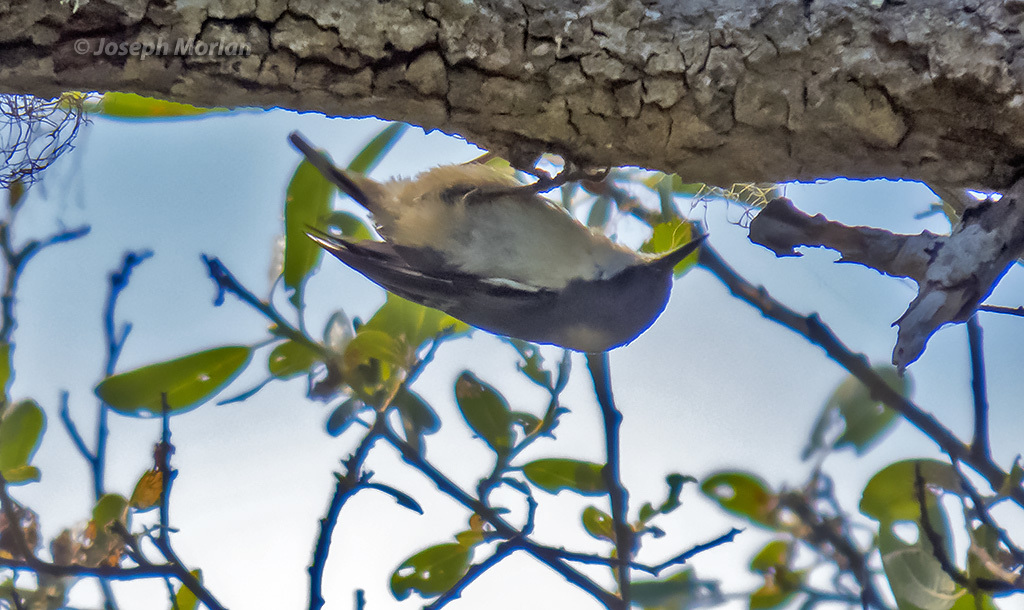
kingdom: Animalia
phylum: Chordata
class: Aves
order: Passeriformes
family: Sittidae
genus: Sitta
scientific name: Sitta pygmaea
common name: Pygmy nuthatch
